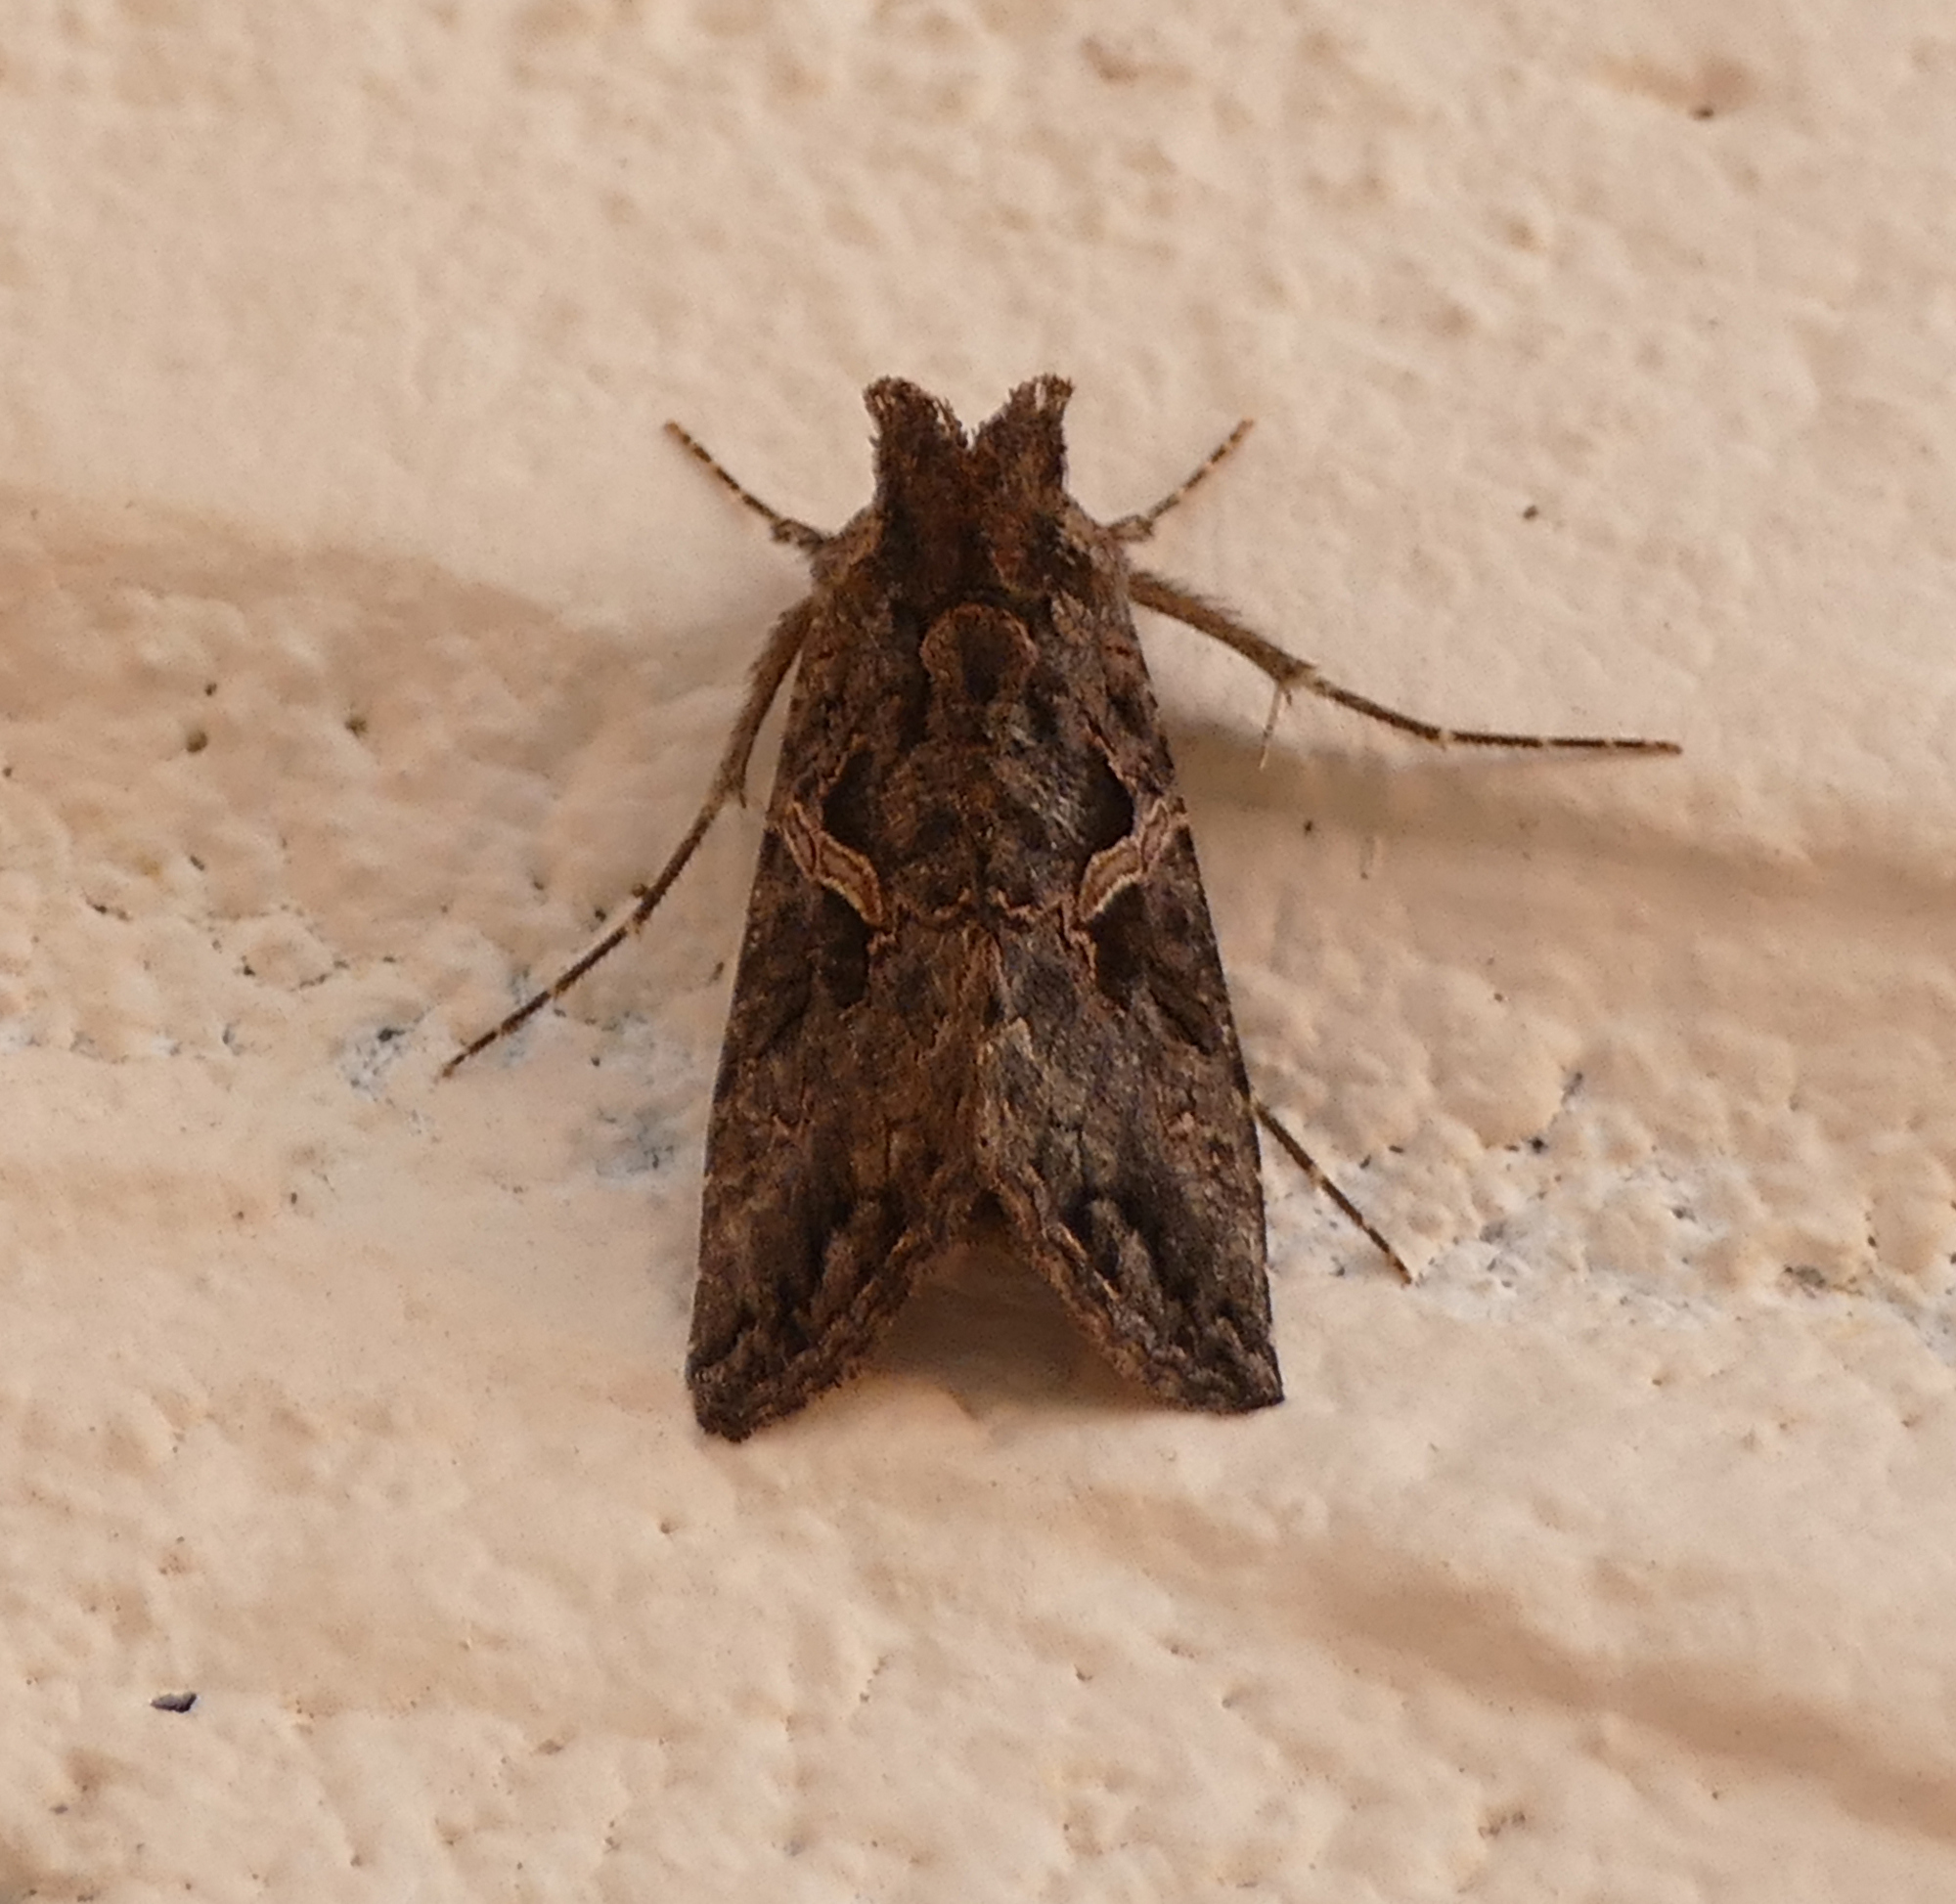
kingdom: Animalia
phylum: Arthropoda
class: Insecta
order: Lepidoptera
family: Noctuidae
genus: Ctenoplusia
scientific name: Ctenoplusia oxygramma
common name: Sharp-stigma looper moth
